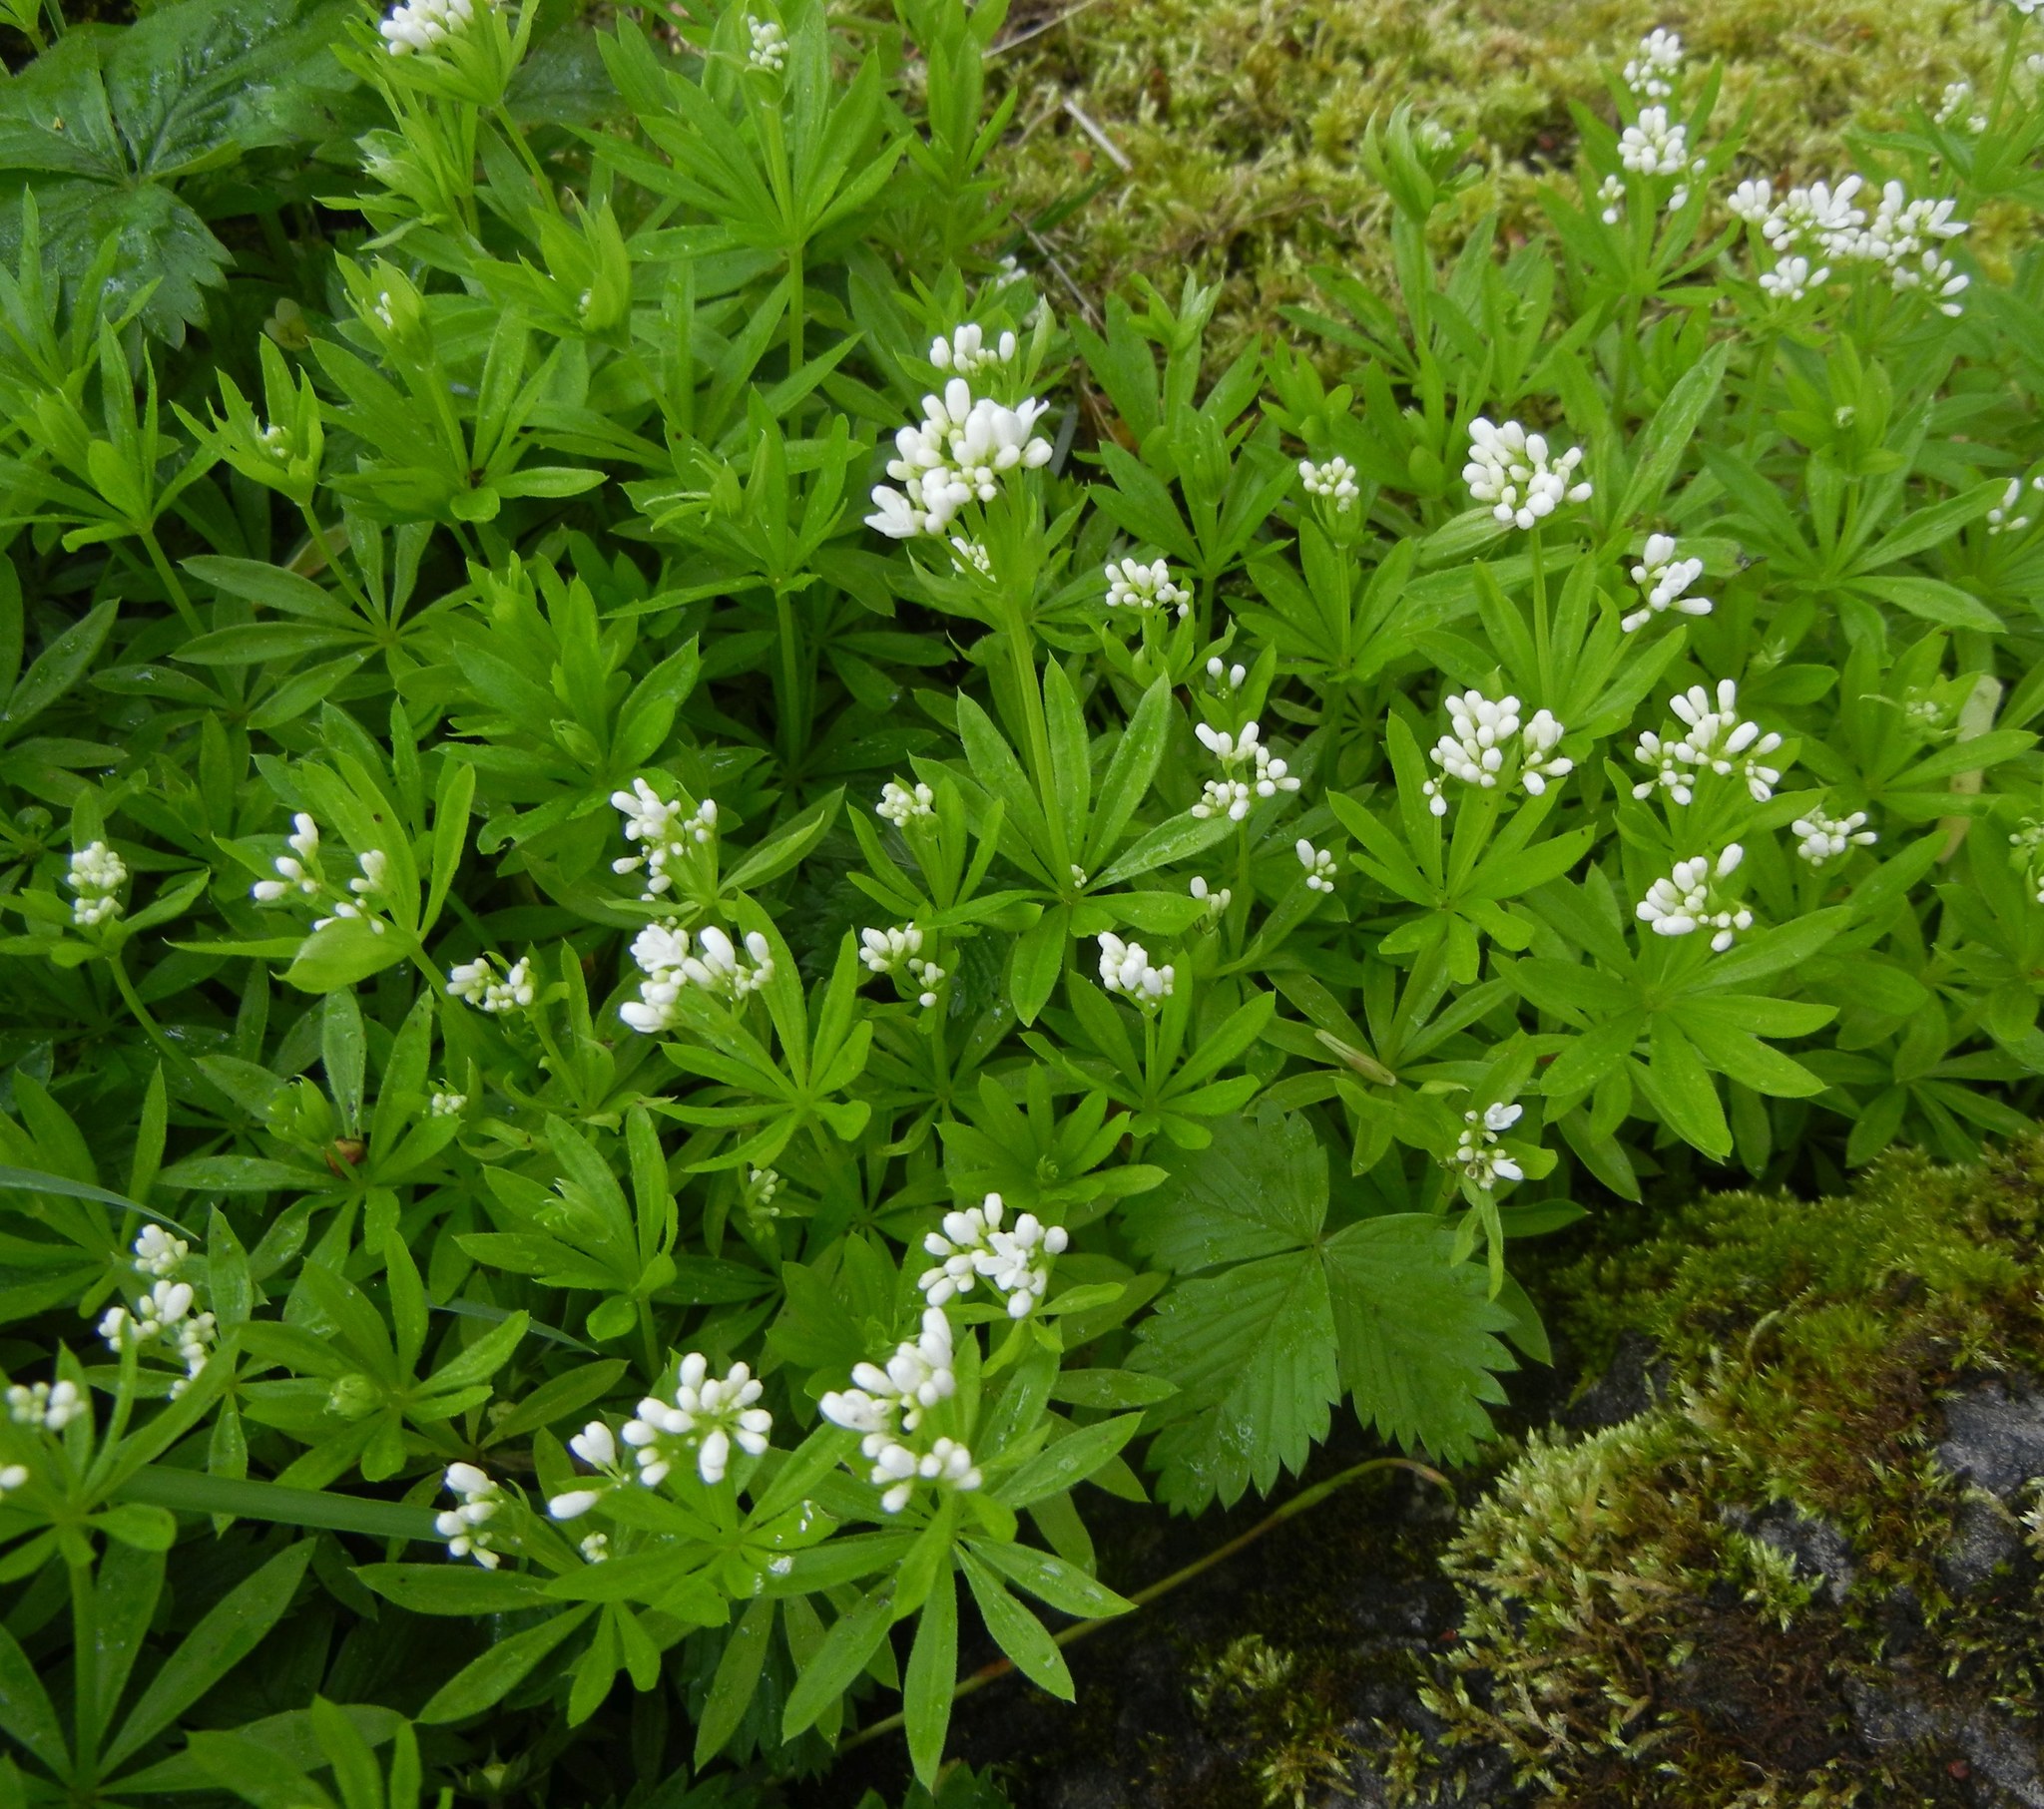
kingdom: Plantae
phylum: Tracheophyta
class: Magnoliopsida
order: Gentianales
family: Rubiaceae
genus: Galium
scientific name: Galium odoratum
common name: Sweet woodruff
